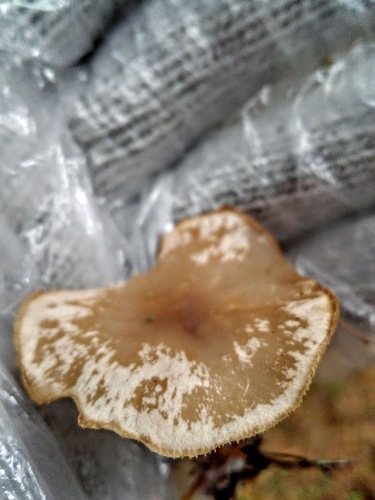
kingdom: Fungi
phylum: Basidiomycota
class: Agaricomycetes
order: Agaricales
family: Tricholomataceae
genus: Clitocybe
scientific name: Clitocybe
